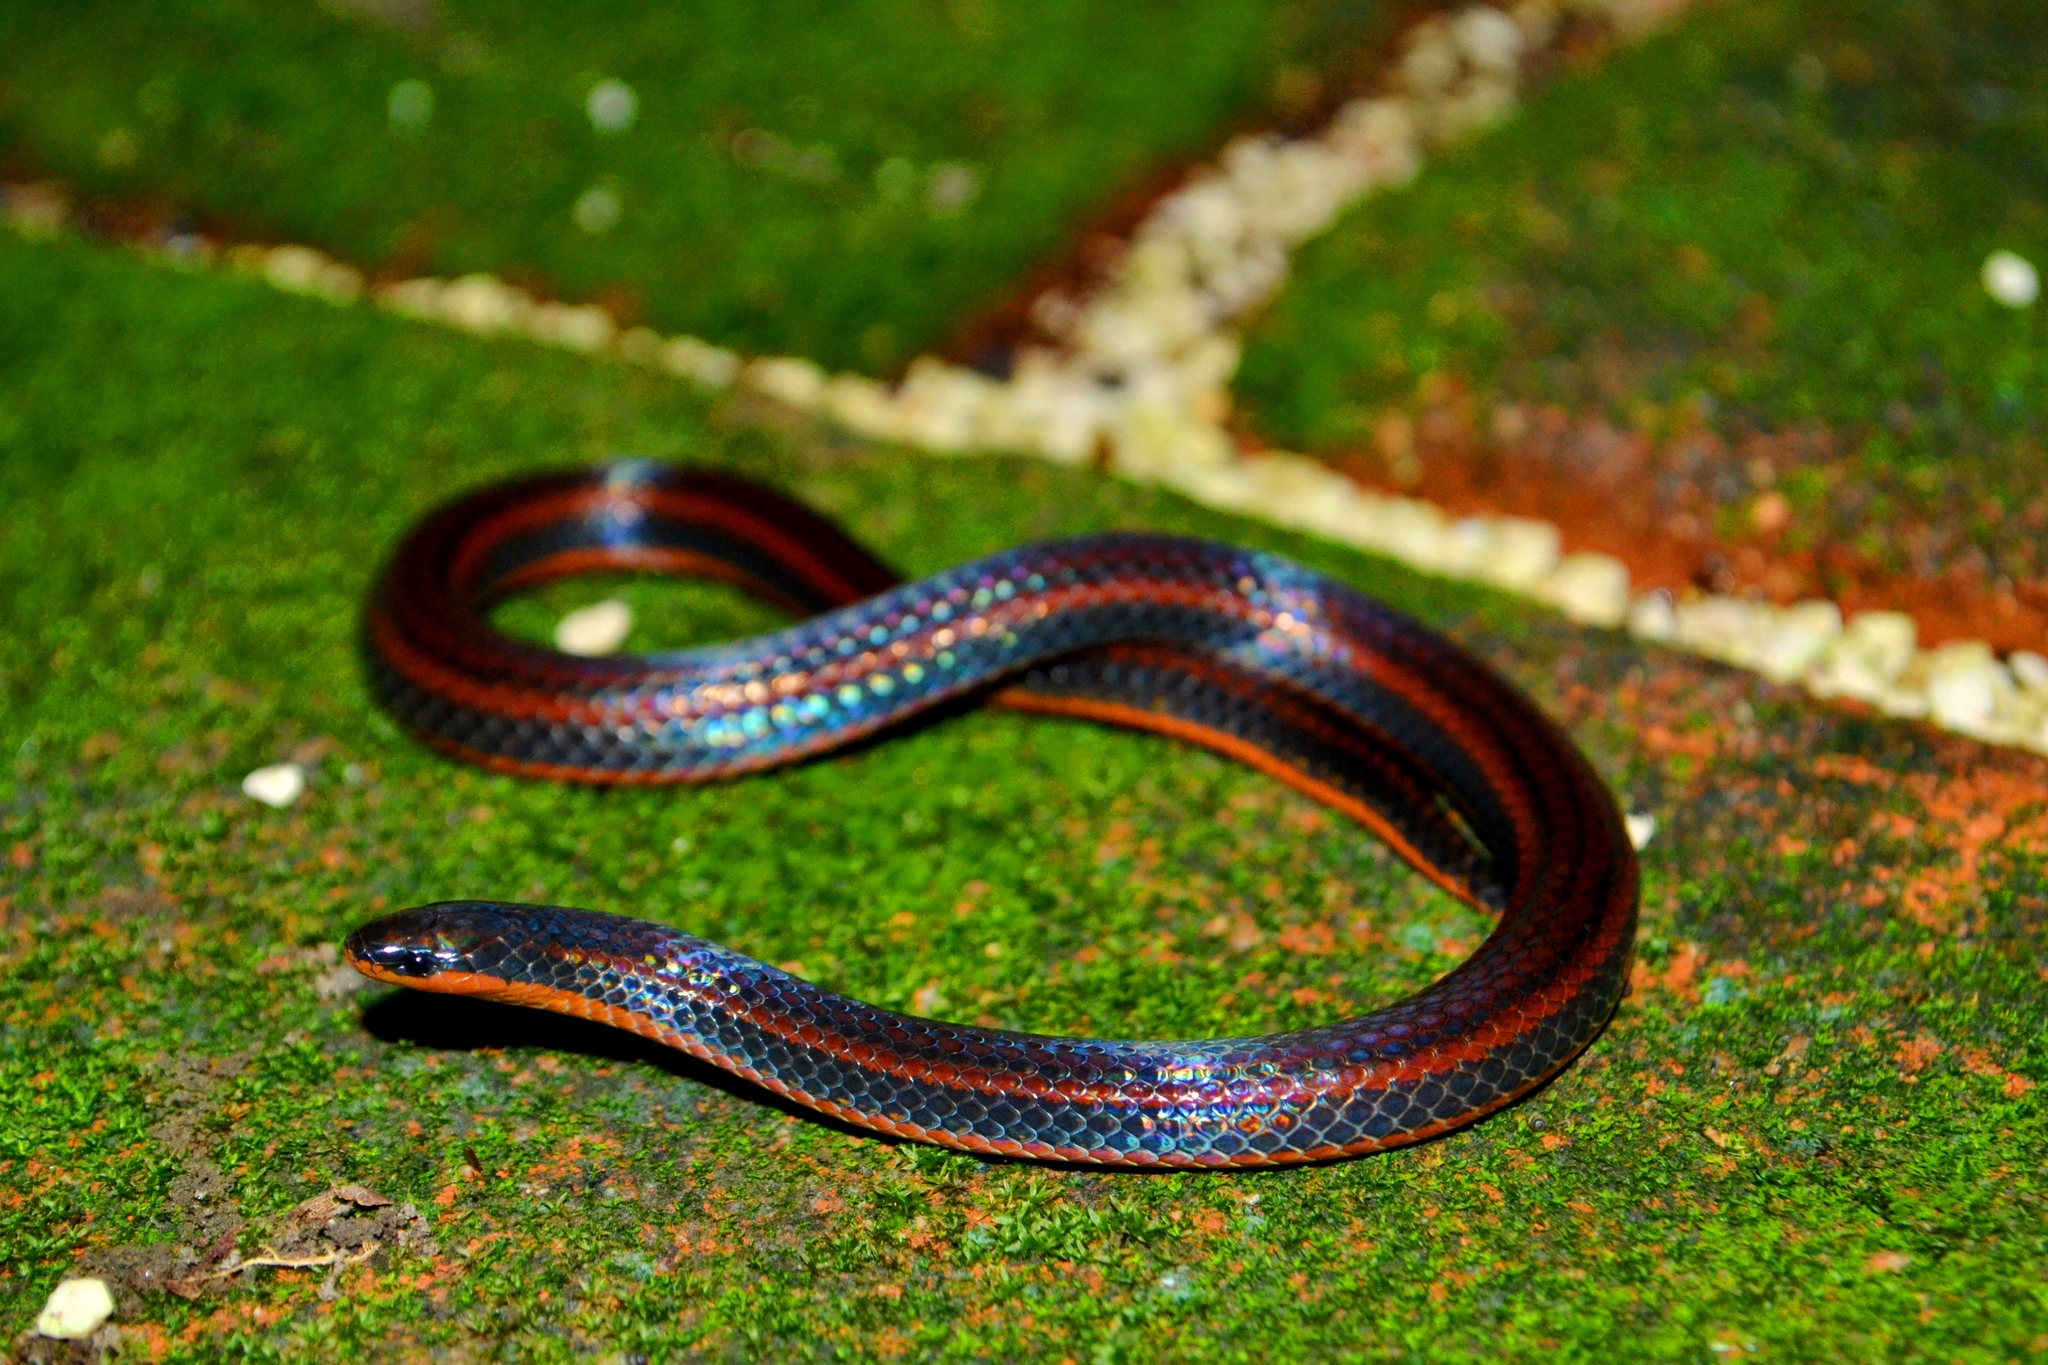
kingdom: Animalia
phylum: Chordata
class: Squamata
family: Colubridae
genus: Adelphicos
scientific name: Adelphicos nigrilatum
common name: Burrowing snake
